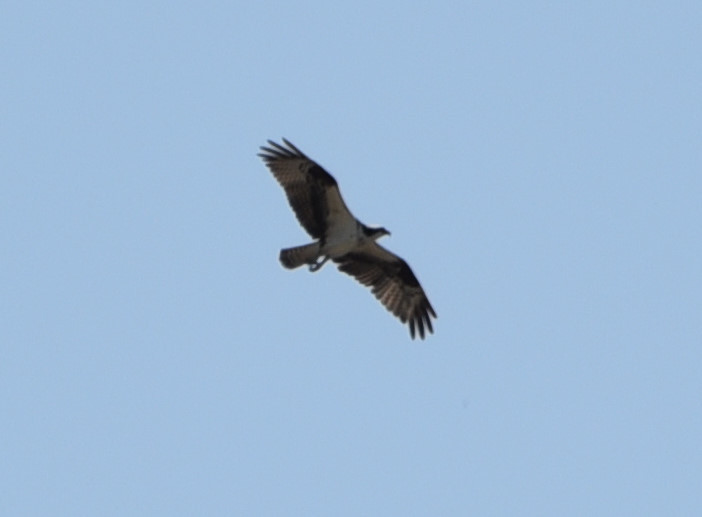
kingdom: Animalia
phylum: Chordata
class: Aves
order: Accipitriformes
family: Pandionidae
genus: Pandion
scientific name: Pandion haliaetus
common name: Osprey
